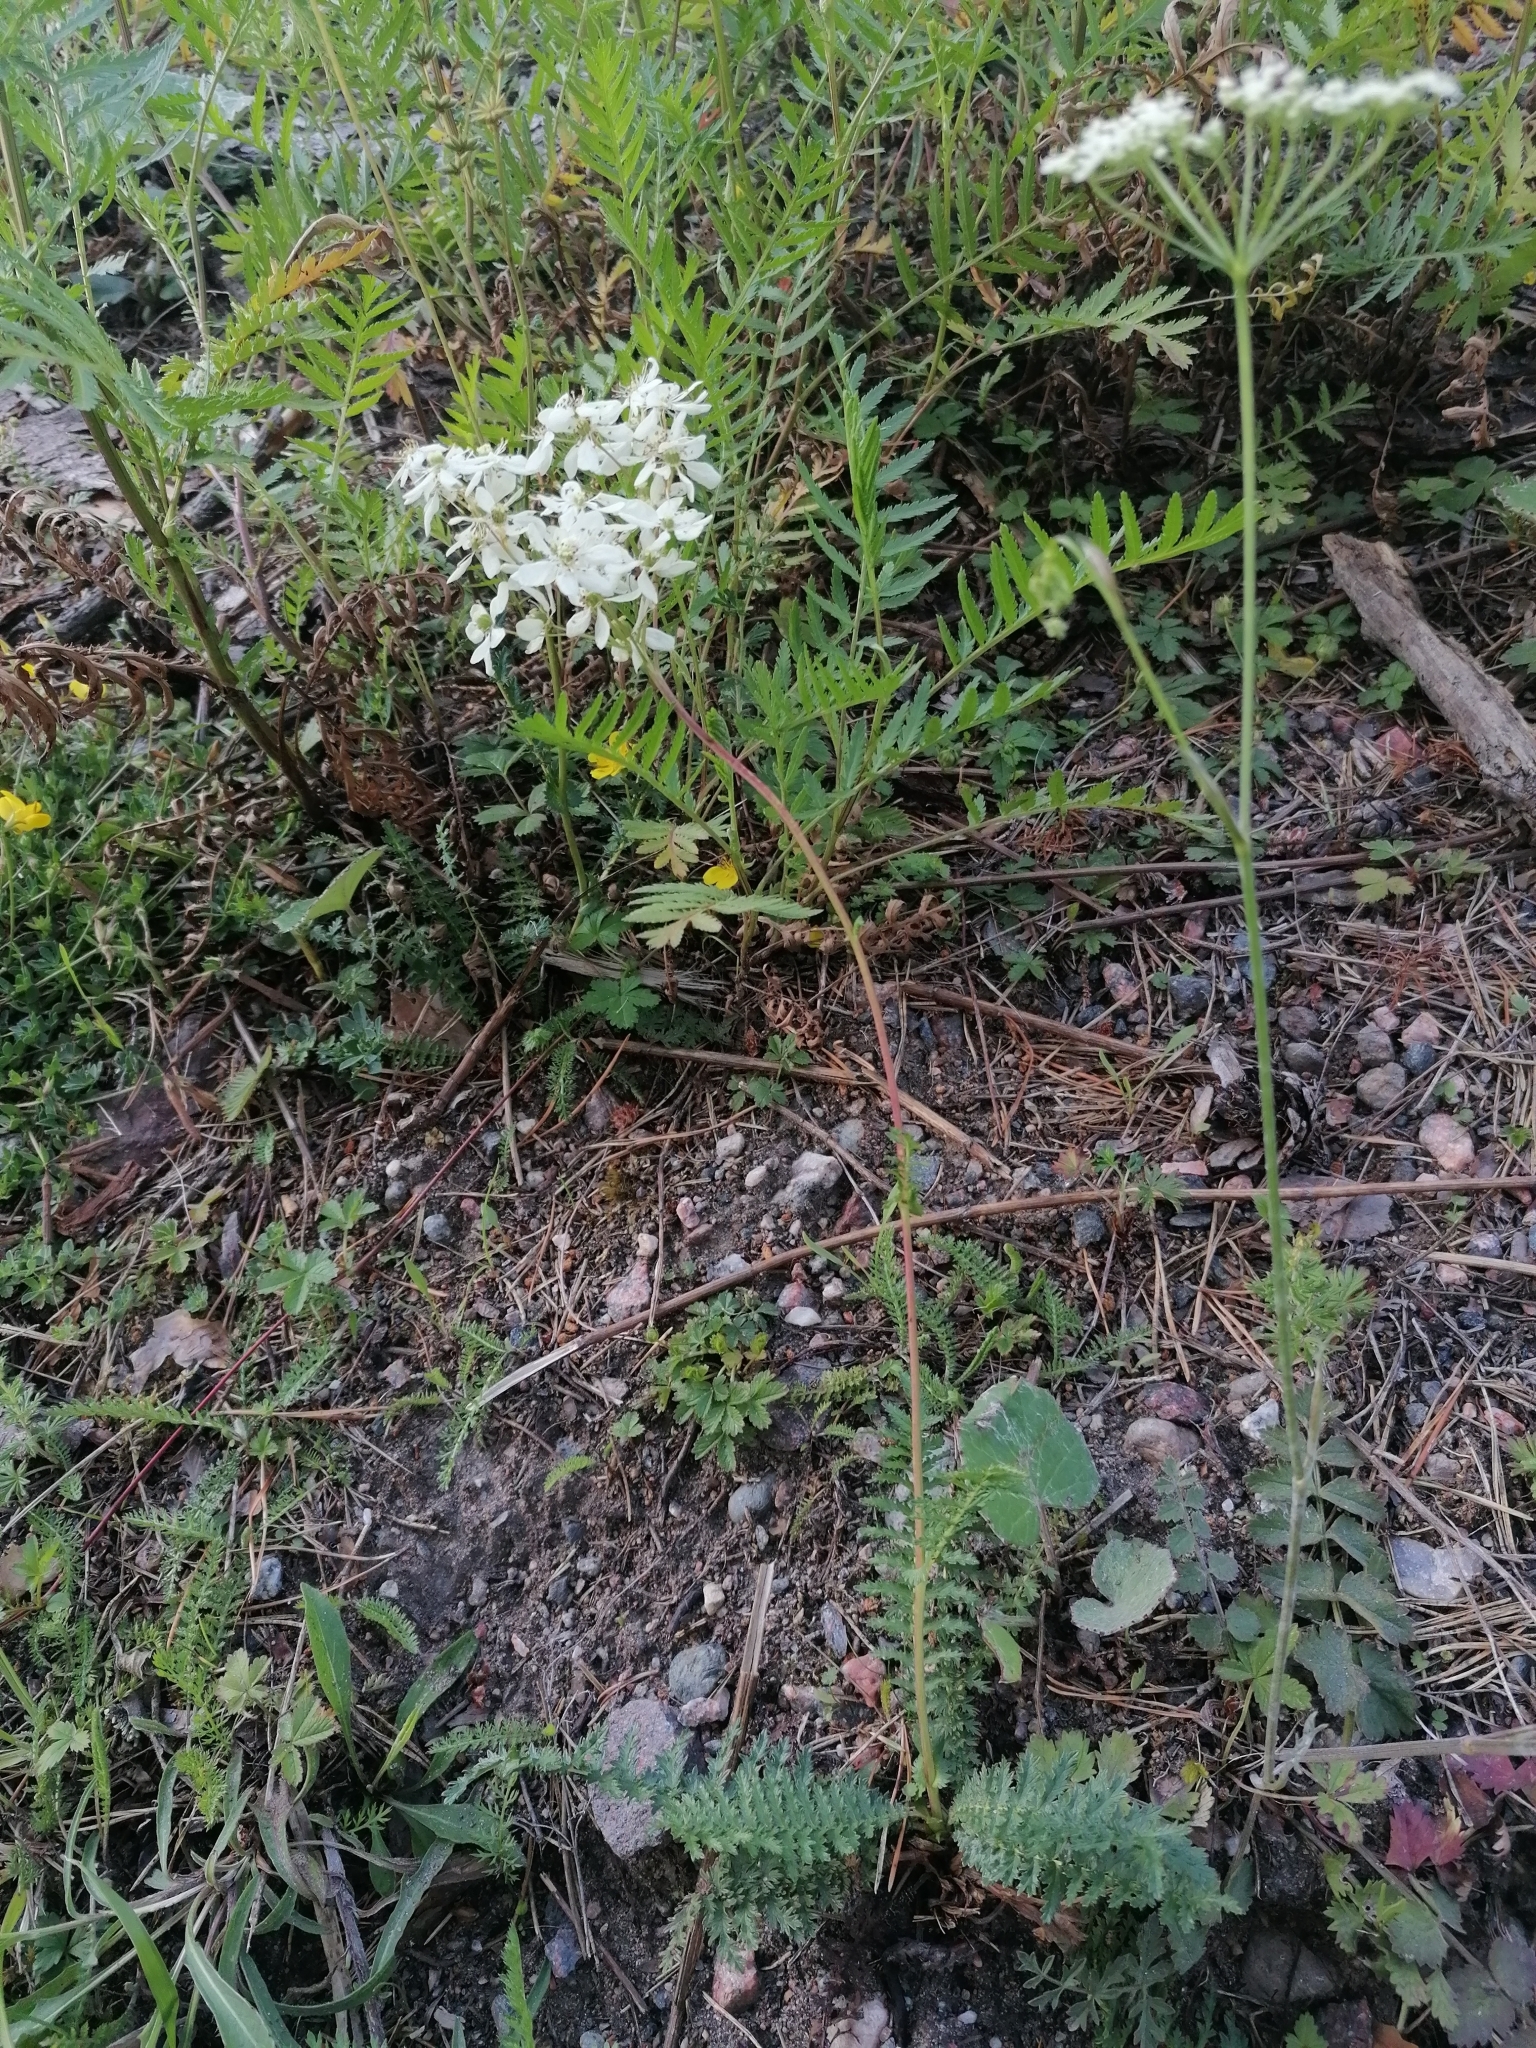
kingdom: Plantae
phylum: Tracheophyta
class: Magnoliopsida
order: Rosales
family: Rosaceae
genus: Filipendula
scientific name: Filipendula vulgaris
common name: Dropwort
